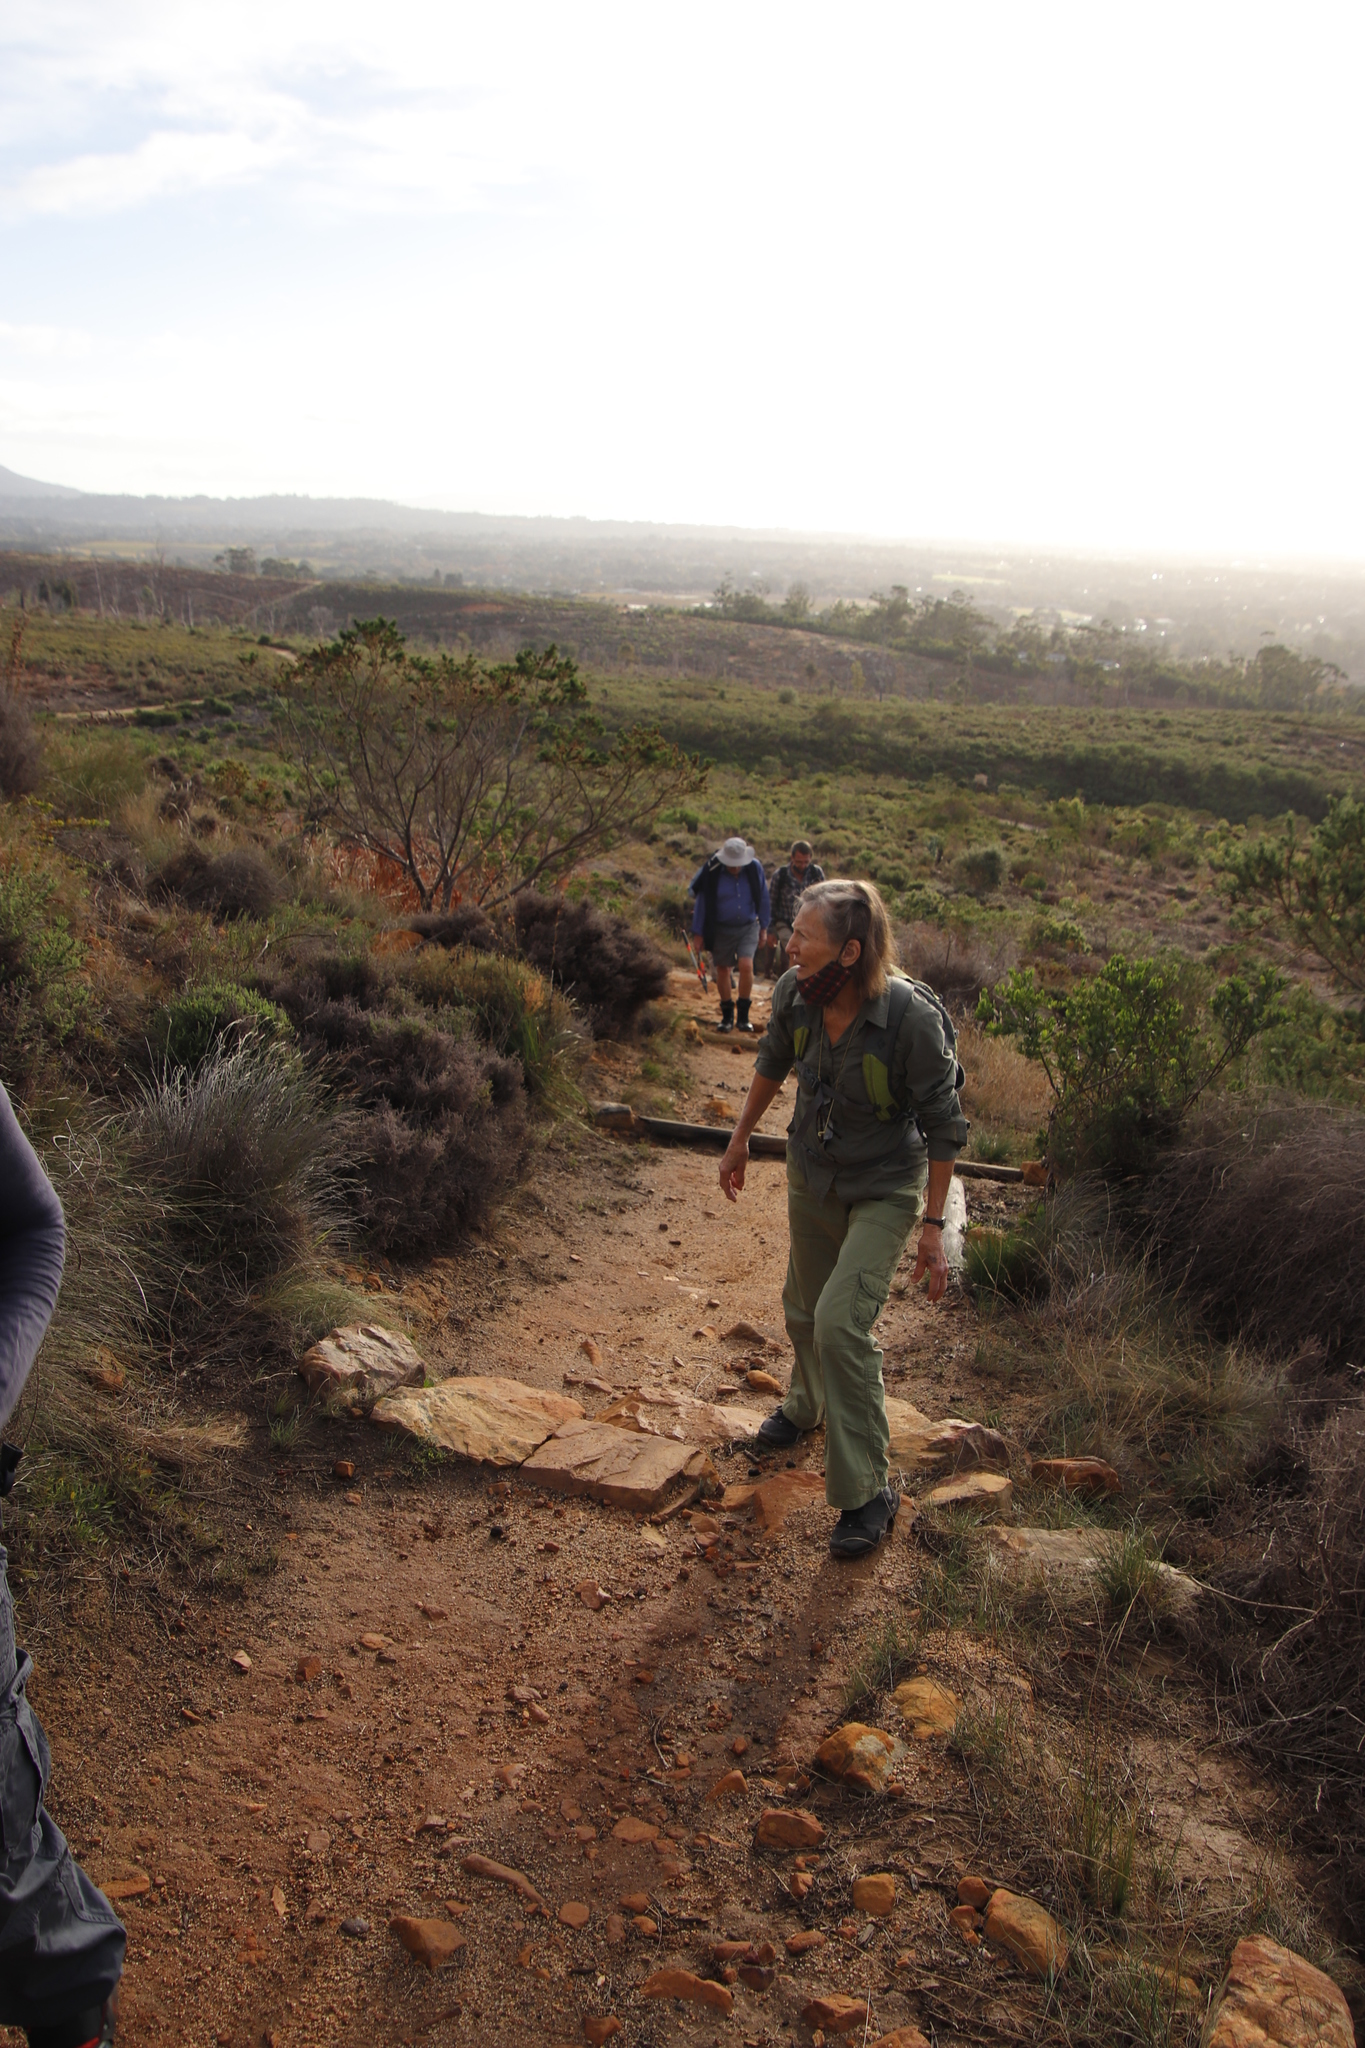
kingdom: Plantae
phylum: Tracheophyta
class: Magnoliopsida
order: Fabales
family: Fabaceae
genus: Psoralea
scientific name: Psoralea pinnata
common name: African scurfpea
